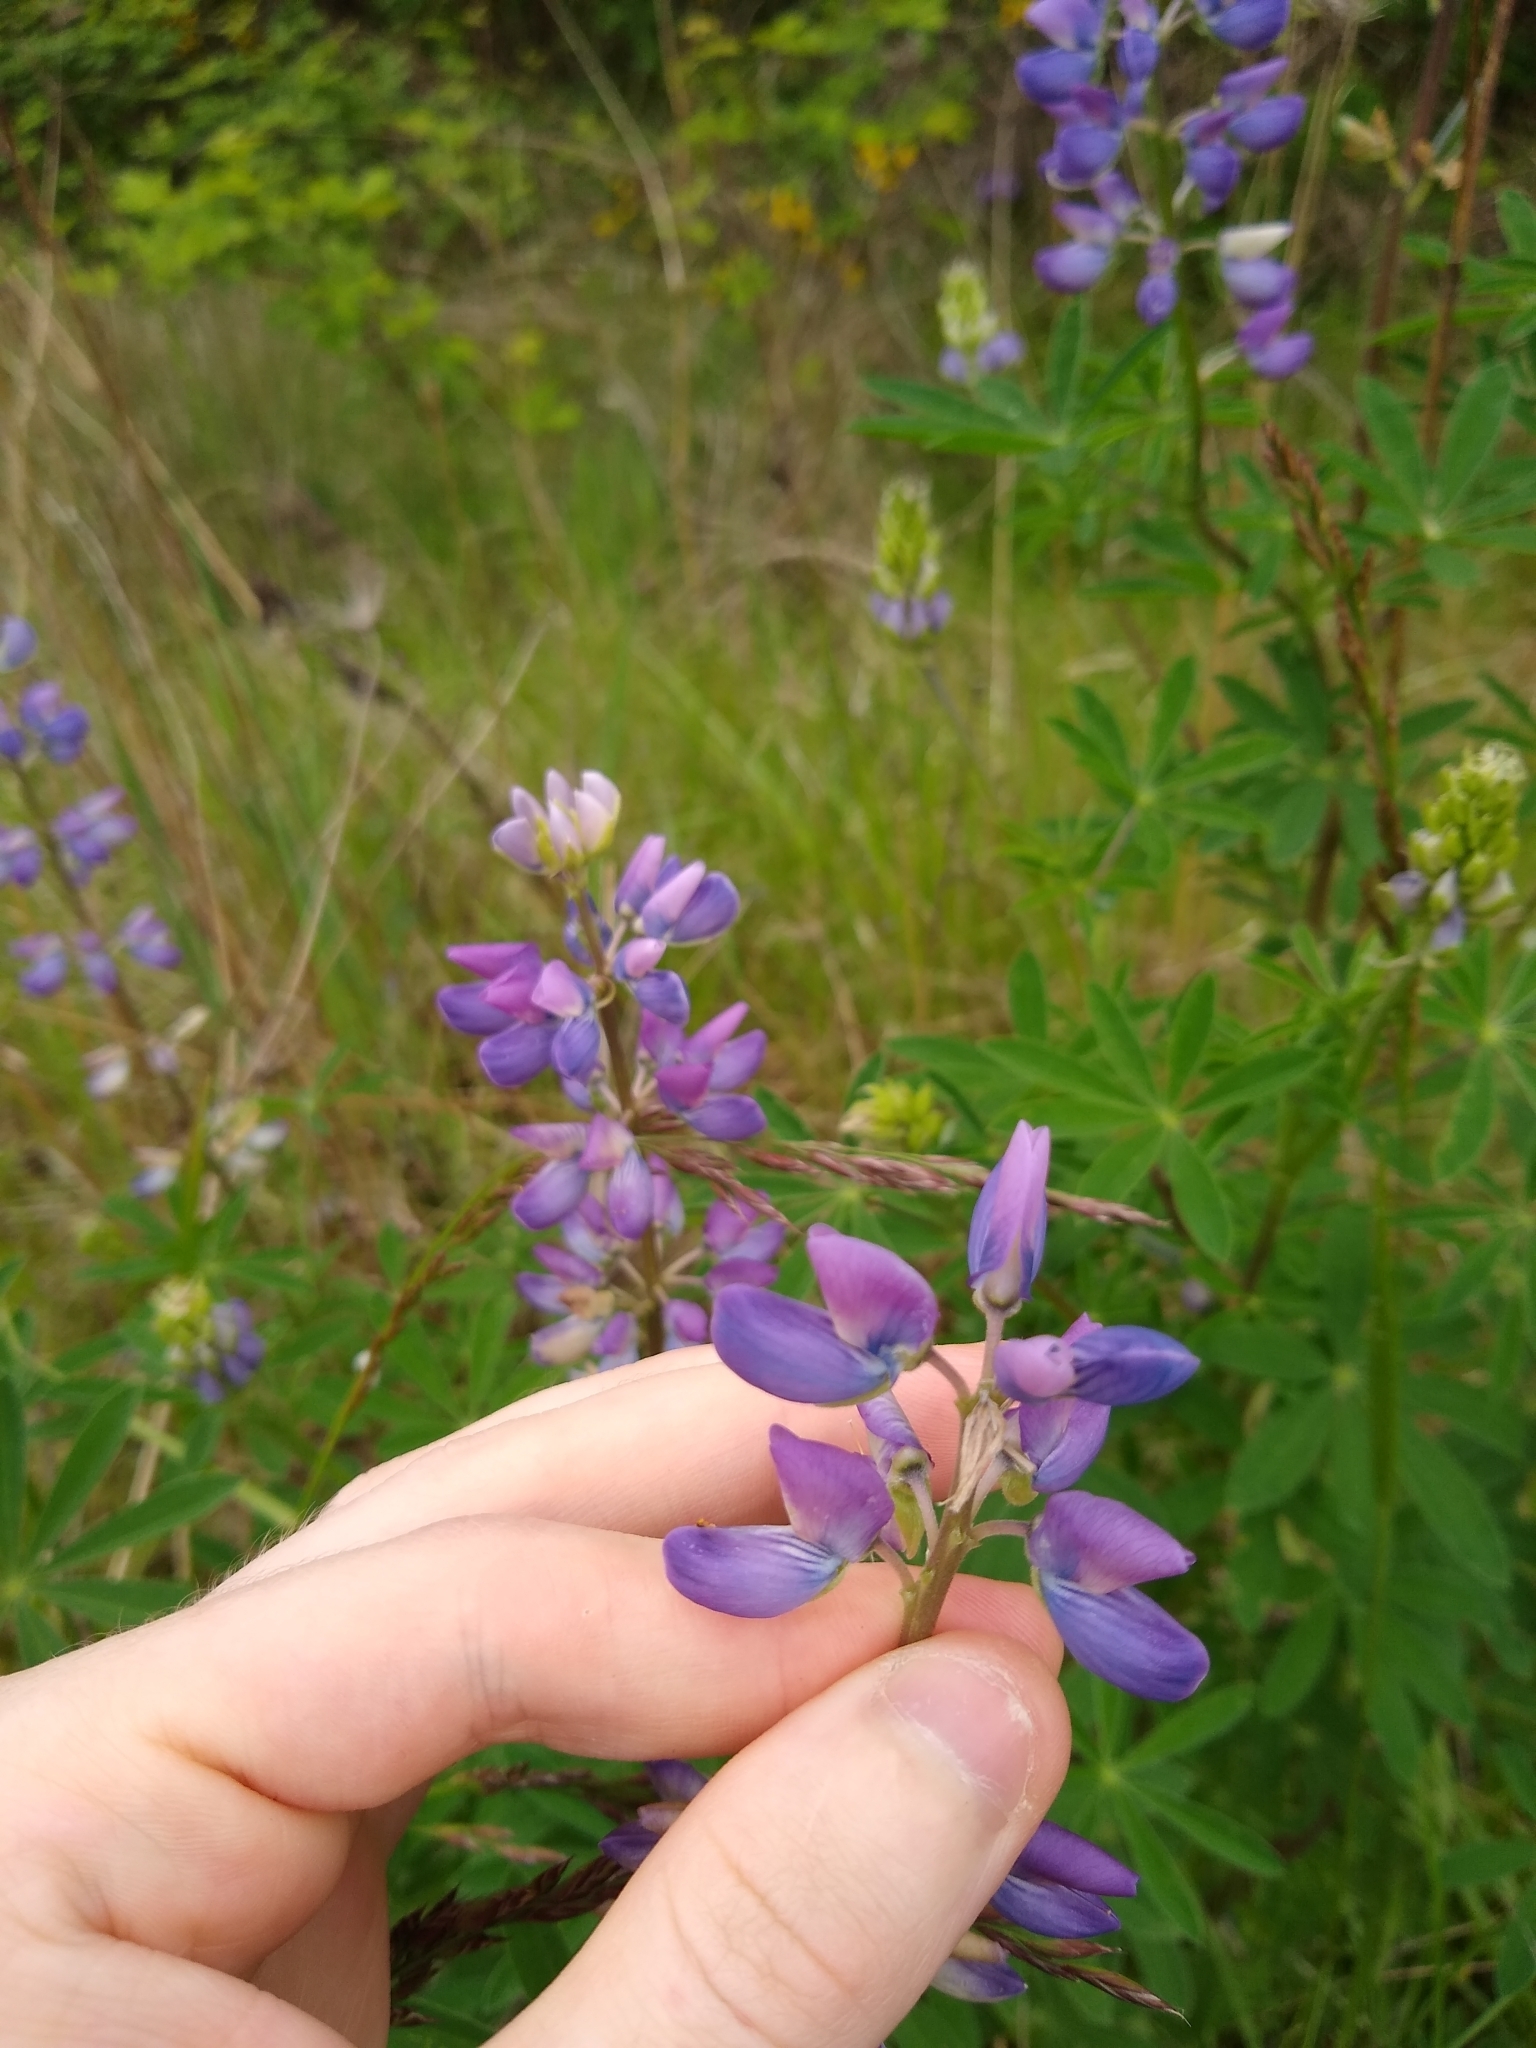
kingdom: Plantae
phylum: Tracheophyta
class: Magnoliopsida
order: Fabales
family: Fabaceae
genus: Lupinus
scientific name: Lupinus rivularis
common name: Riverbank lupine
